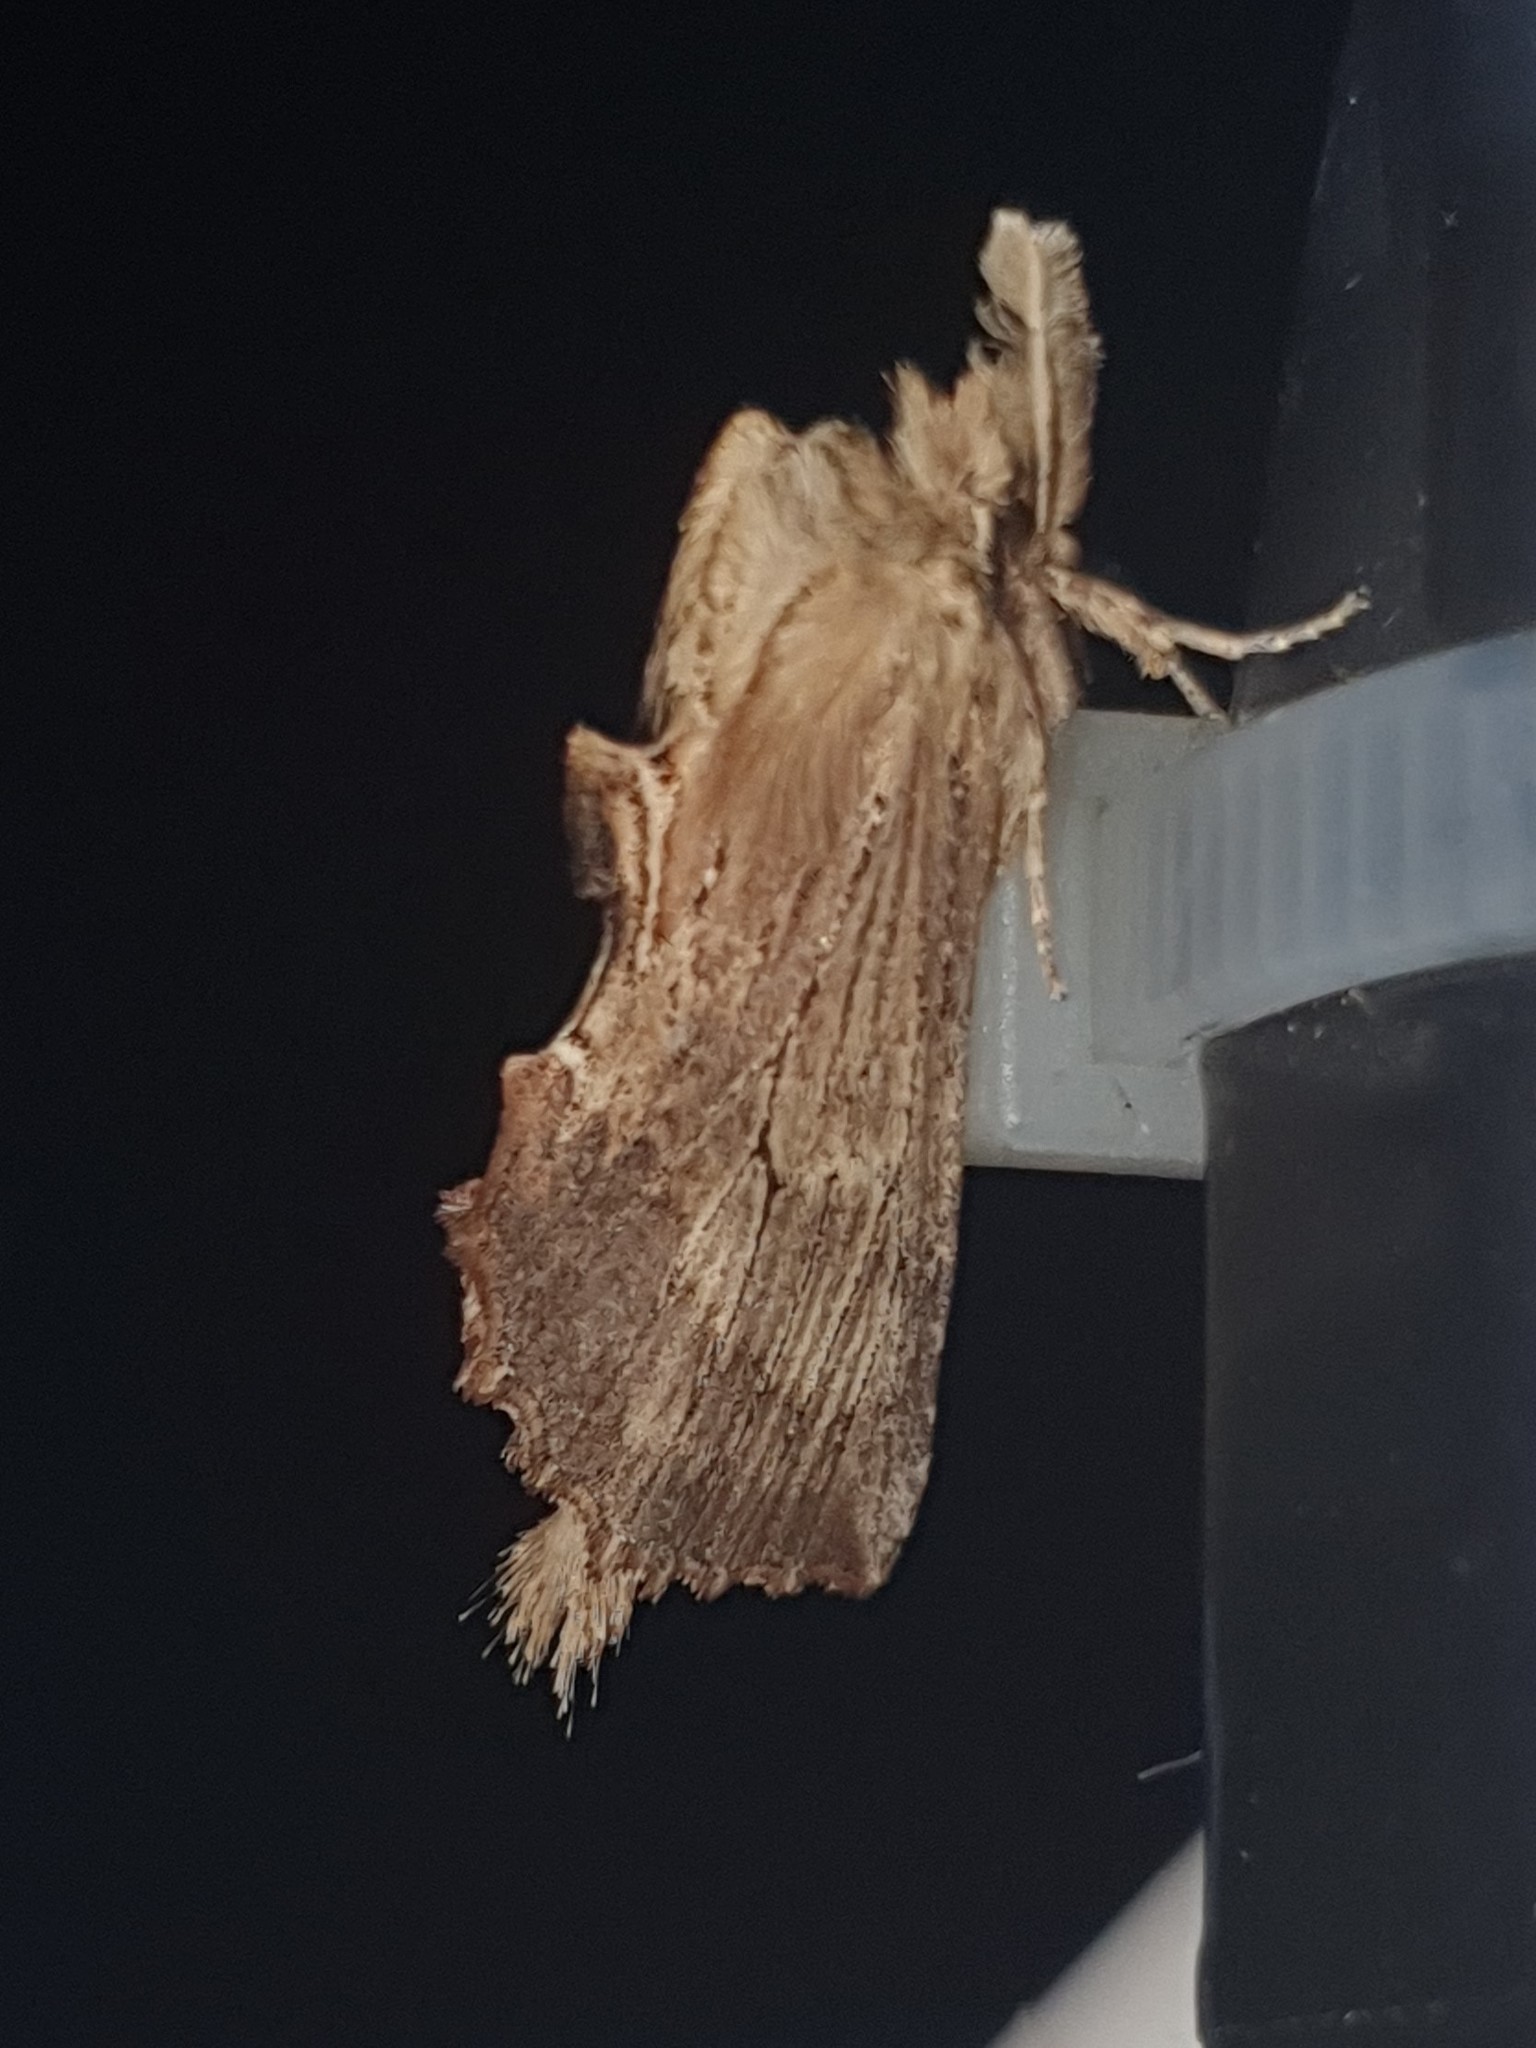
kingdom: Animalia
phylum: Arthropoda
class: Insecta
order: Lepidoptera
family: Notodontidae
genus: Pterostoma
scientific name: Pterostoma palpina
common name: Pale prominent
